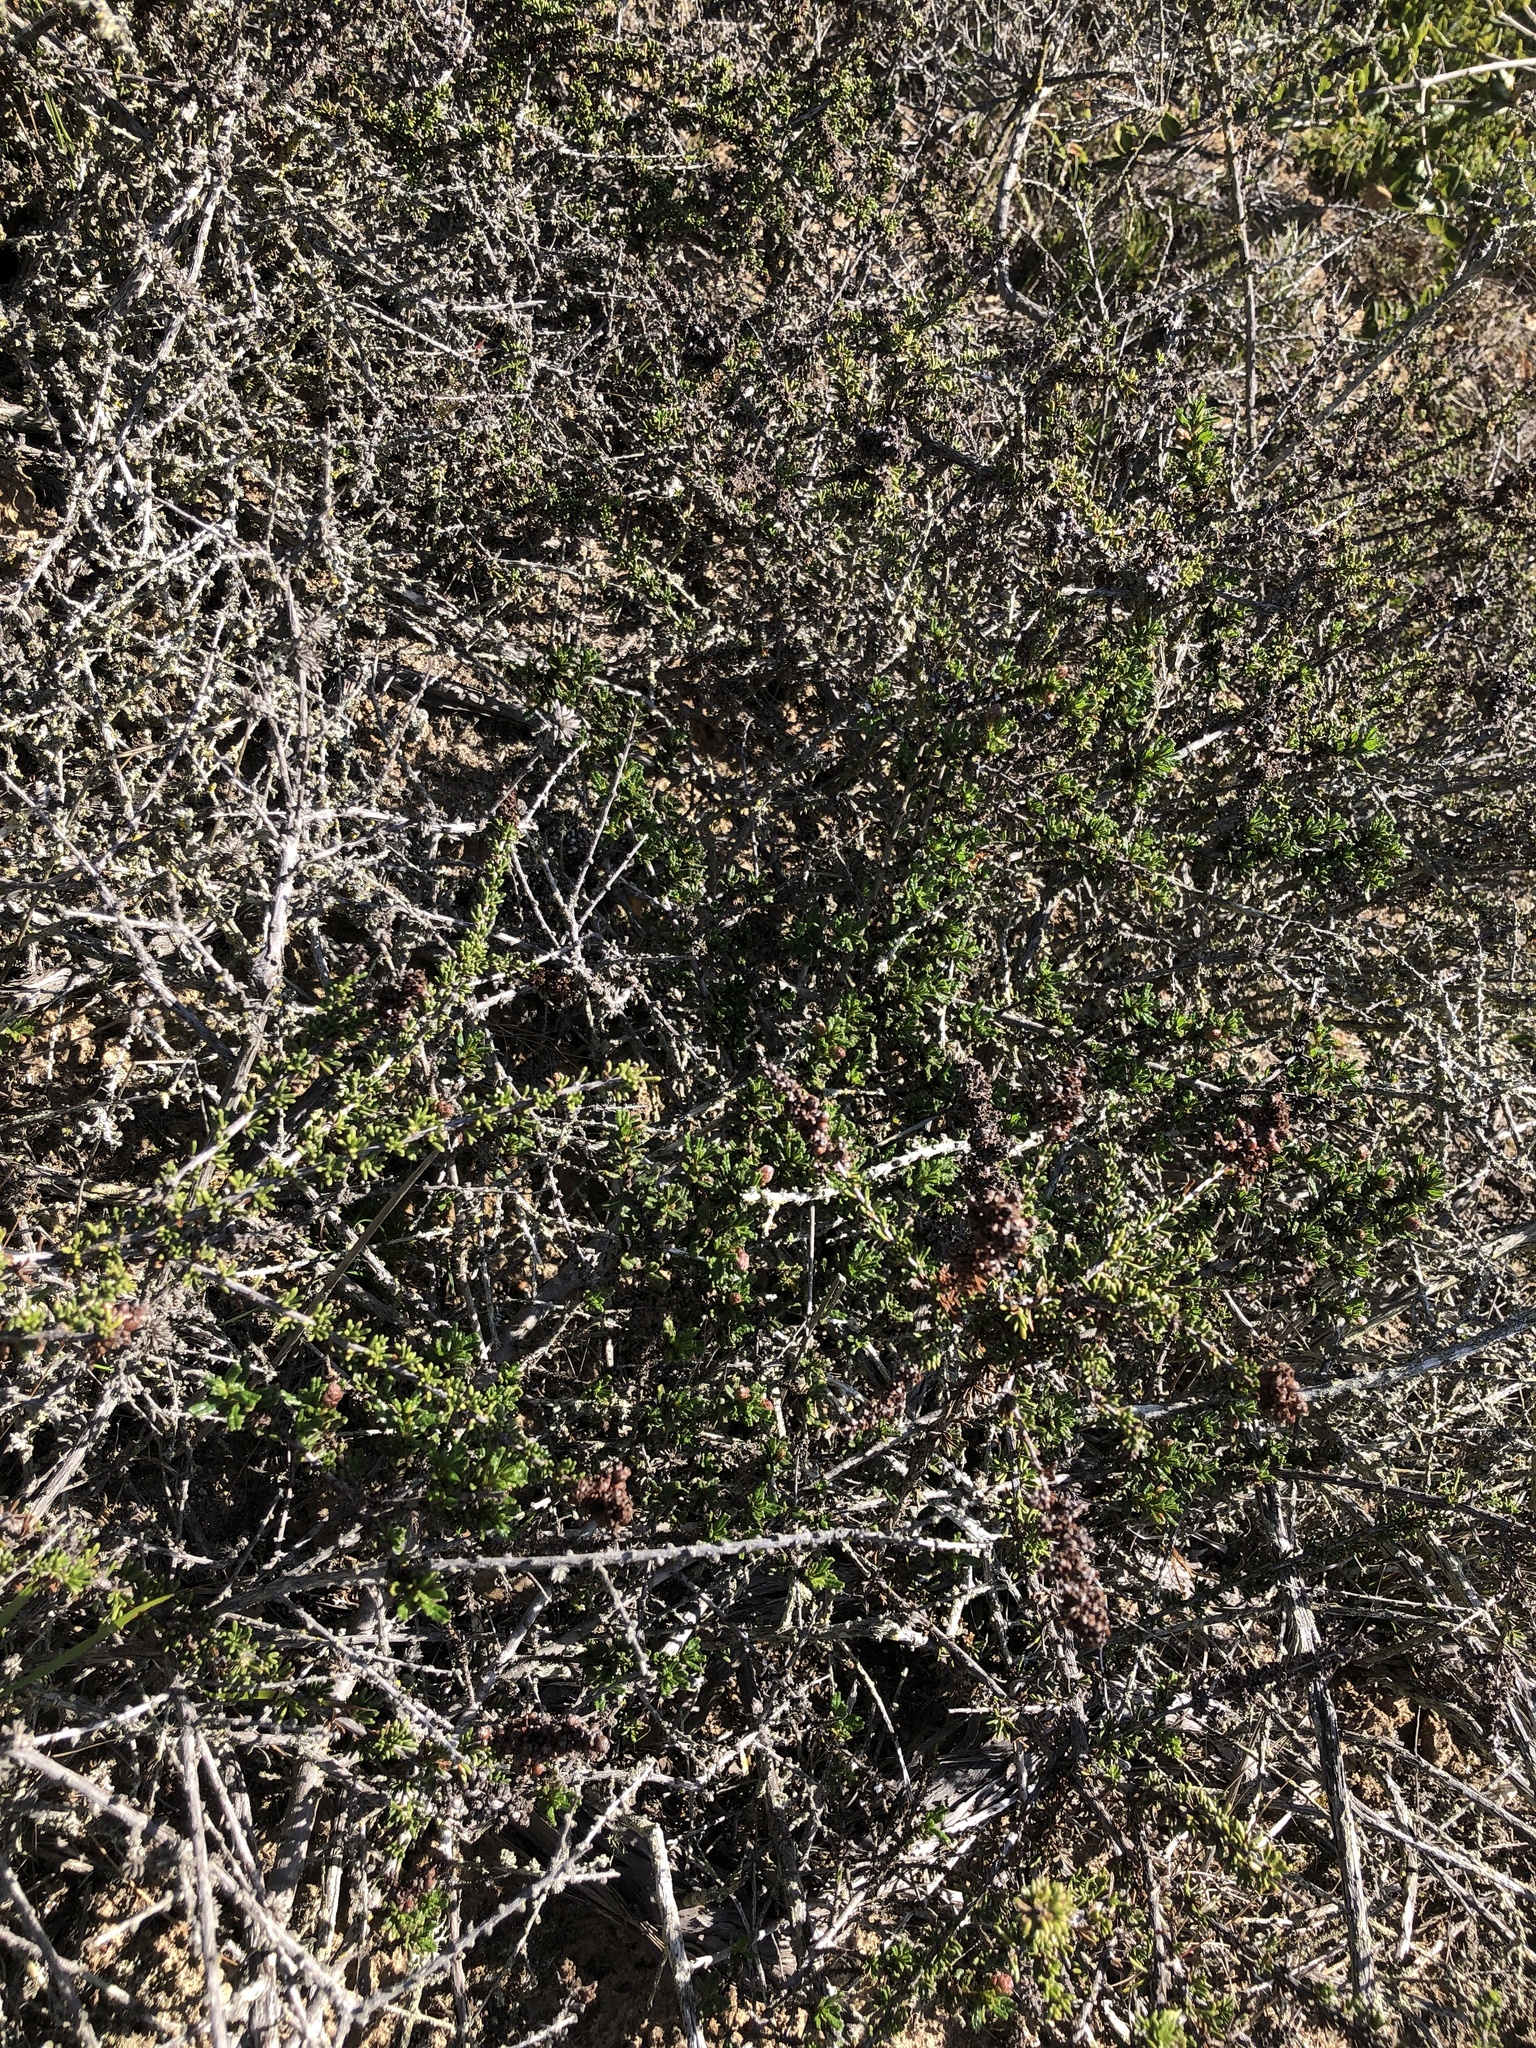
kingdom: Plantae
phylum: Tracheophyta
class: Magnoliopsida
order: Rosales
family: Rosaceae
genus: Adenostoma
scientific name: Adenostoma fasciculatum
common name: Chamise
